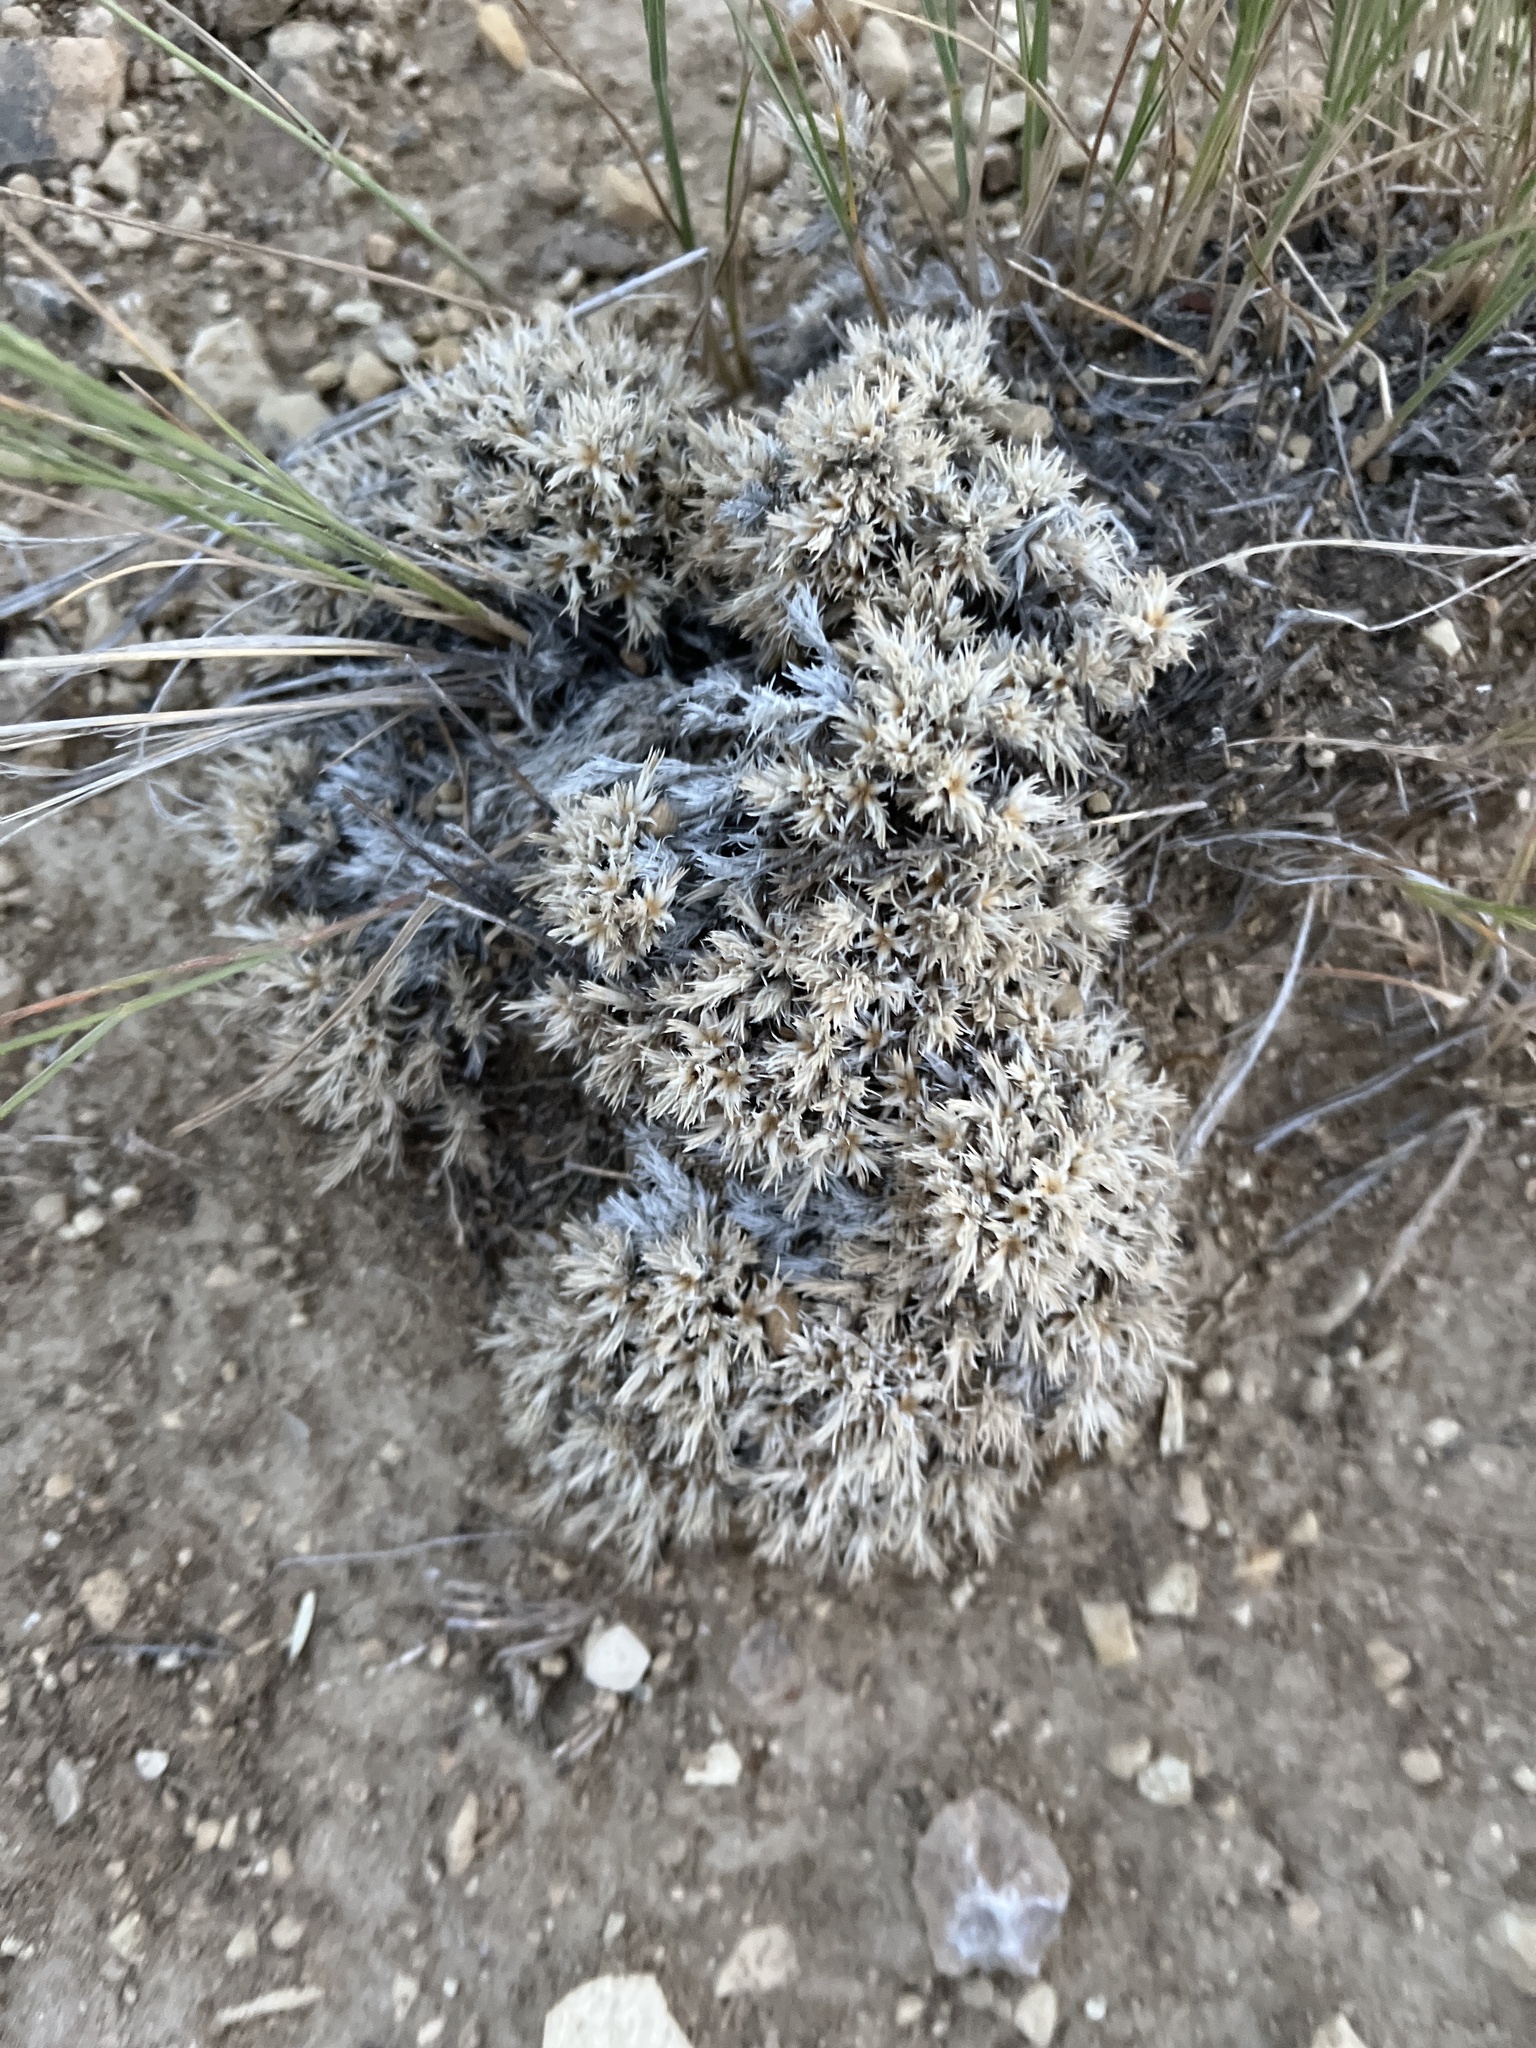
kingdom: Plantae
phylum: Tracheophyta
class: Magnoliopsida
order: Ericales
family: Polemoniaceae
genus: Phlox
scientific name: Phlox hoodii
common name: Moss phlox
